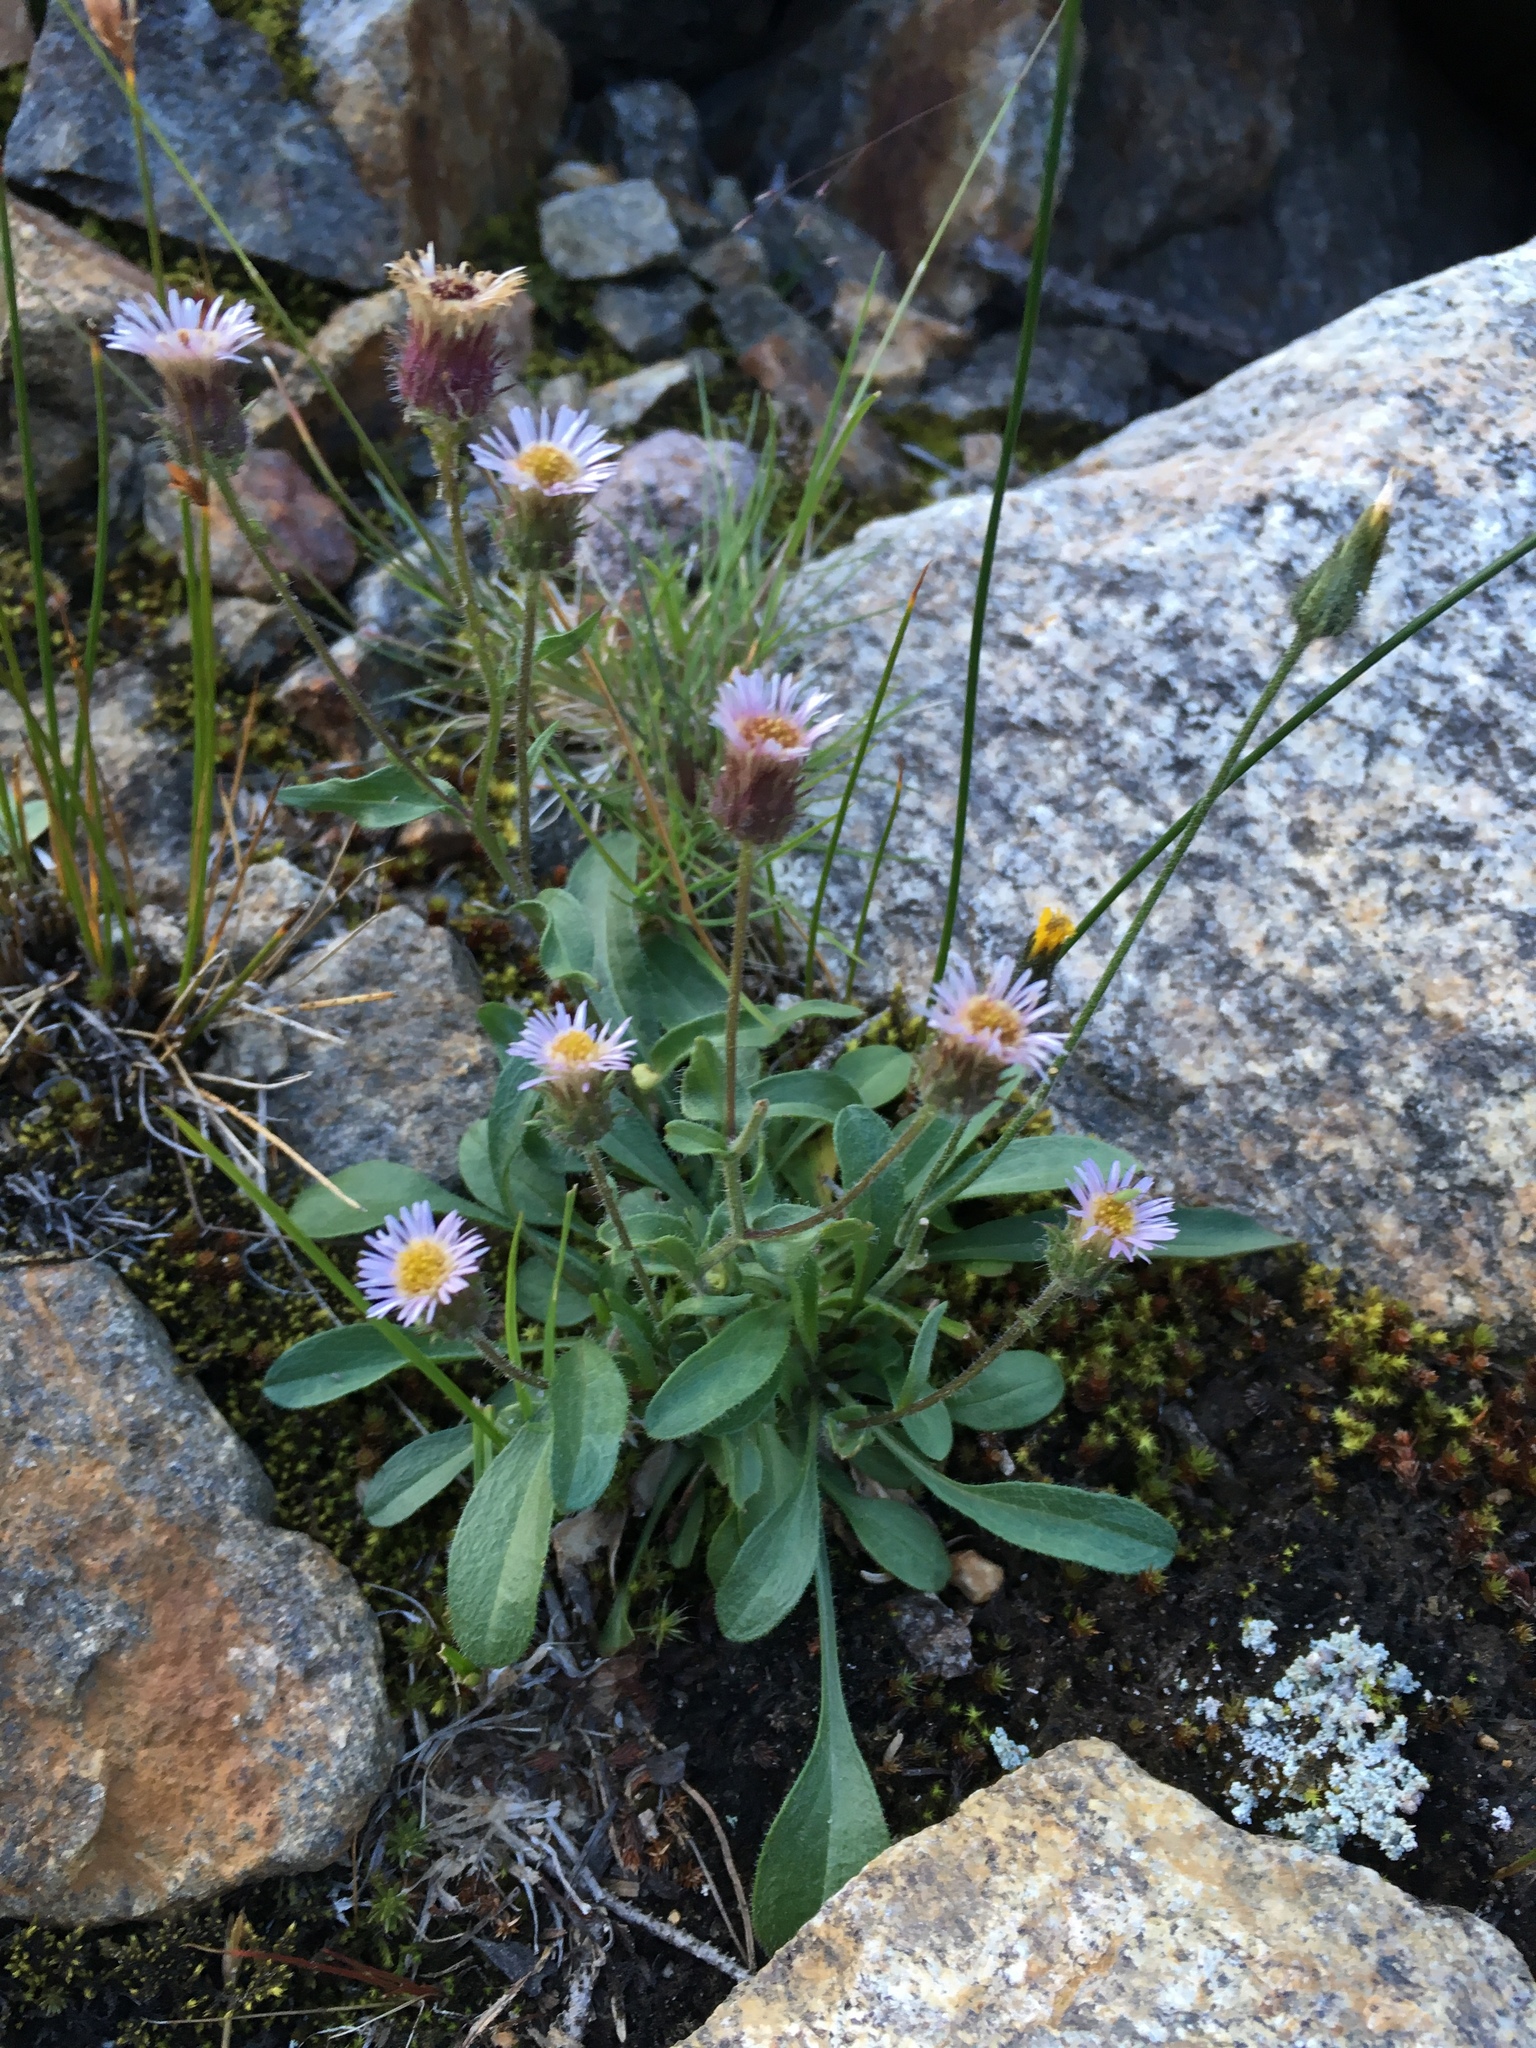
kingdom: Plantae
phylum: Tracheophyta
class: Magnoliopsida
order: Asterales
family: Asteraceae
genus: Erigeron
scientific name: Erigeron nivalis
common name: Snow fleabane
